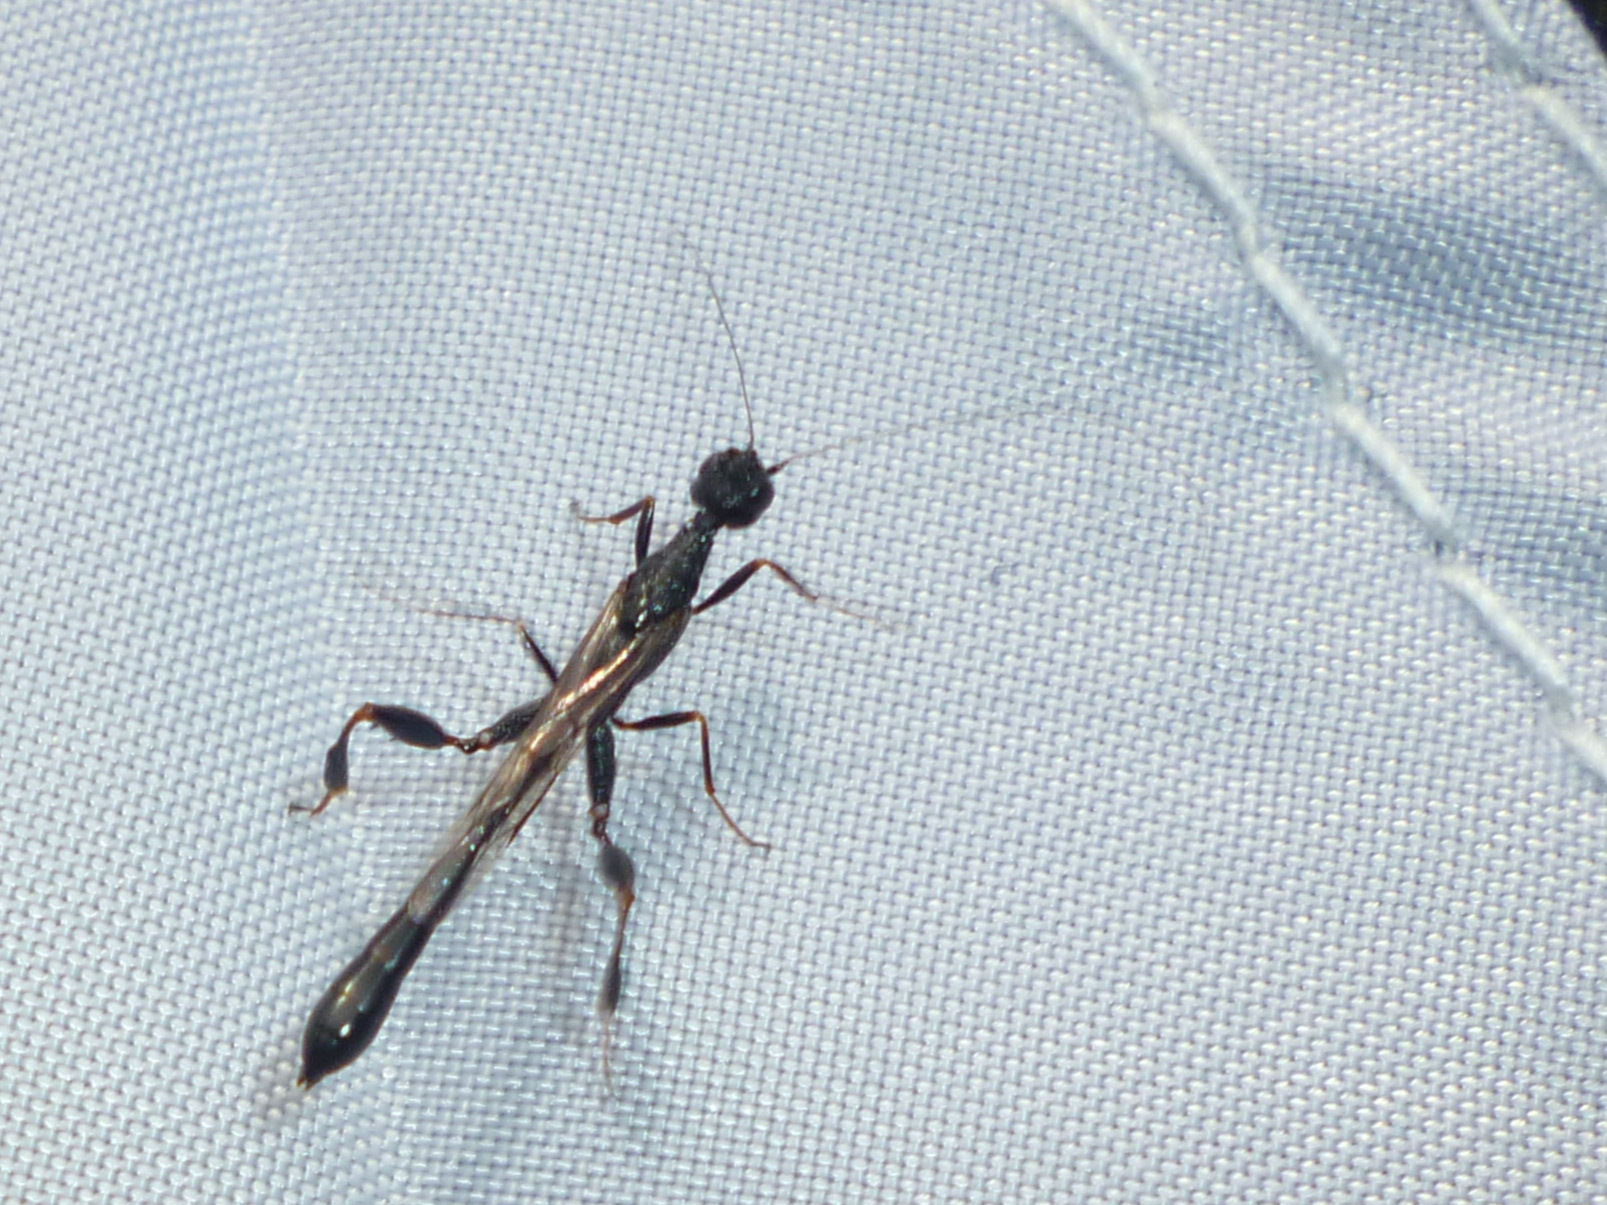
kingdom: Animalia
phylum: Arthropoda
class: Insecta
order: Hymenoptera
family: Stephanidae
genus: Megischus
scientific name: Megischus
